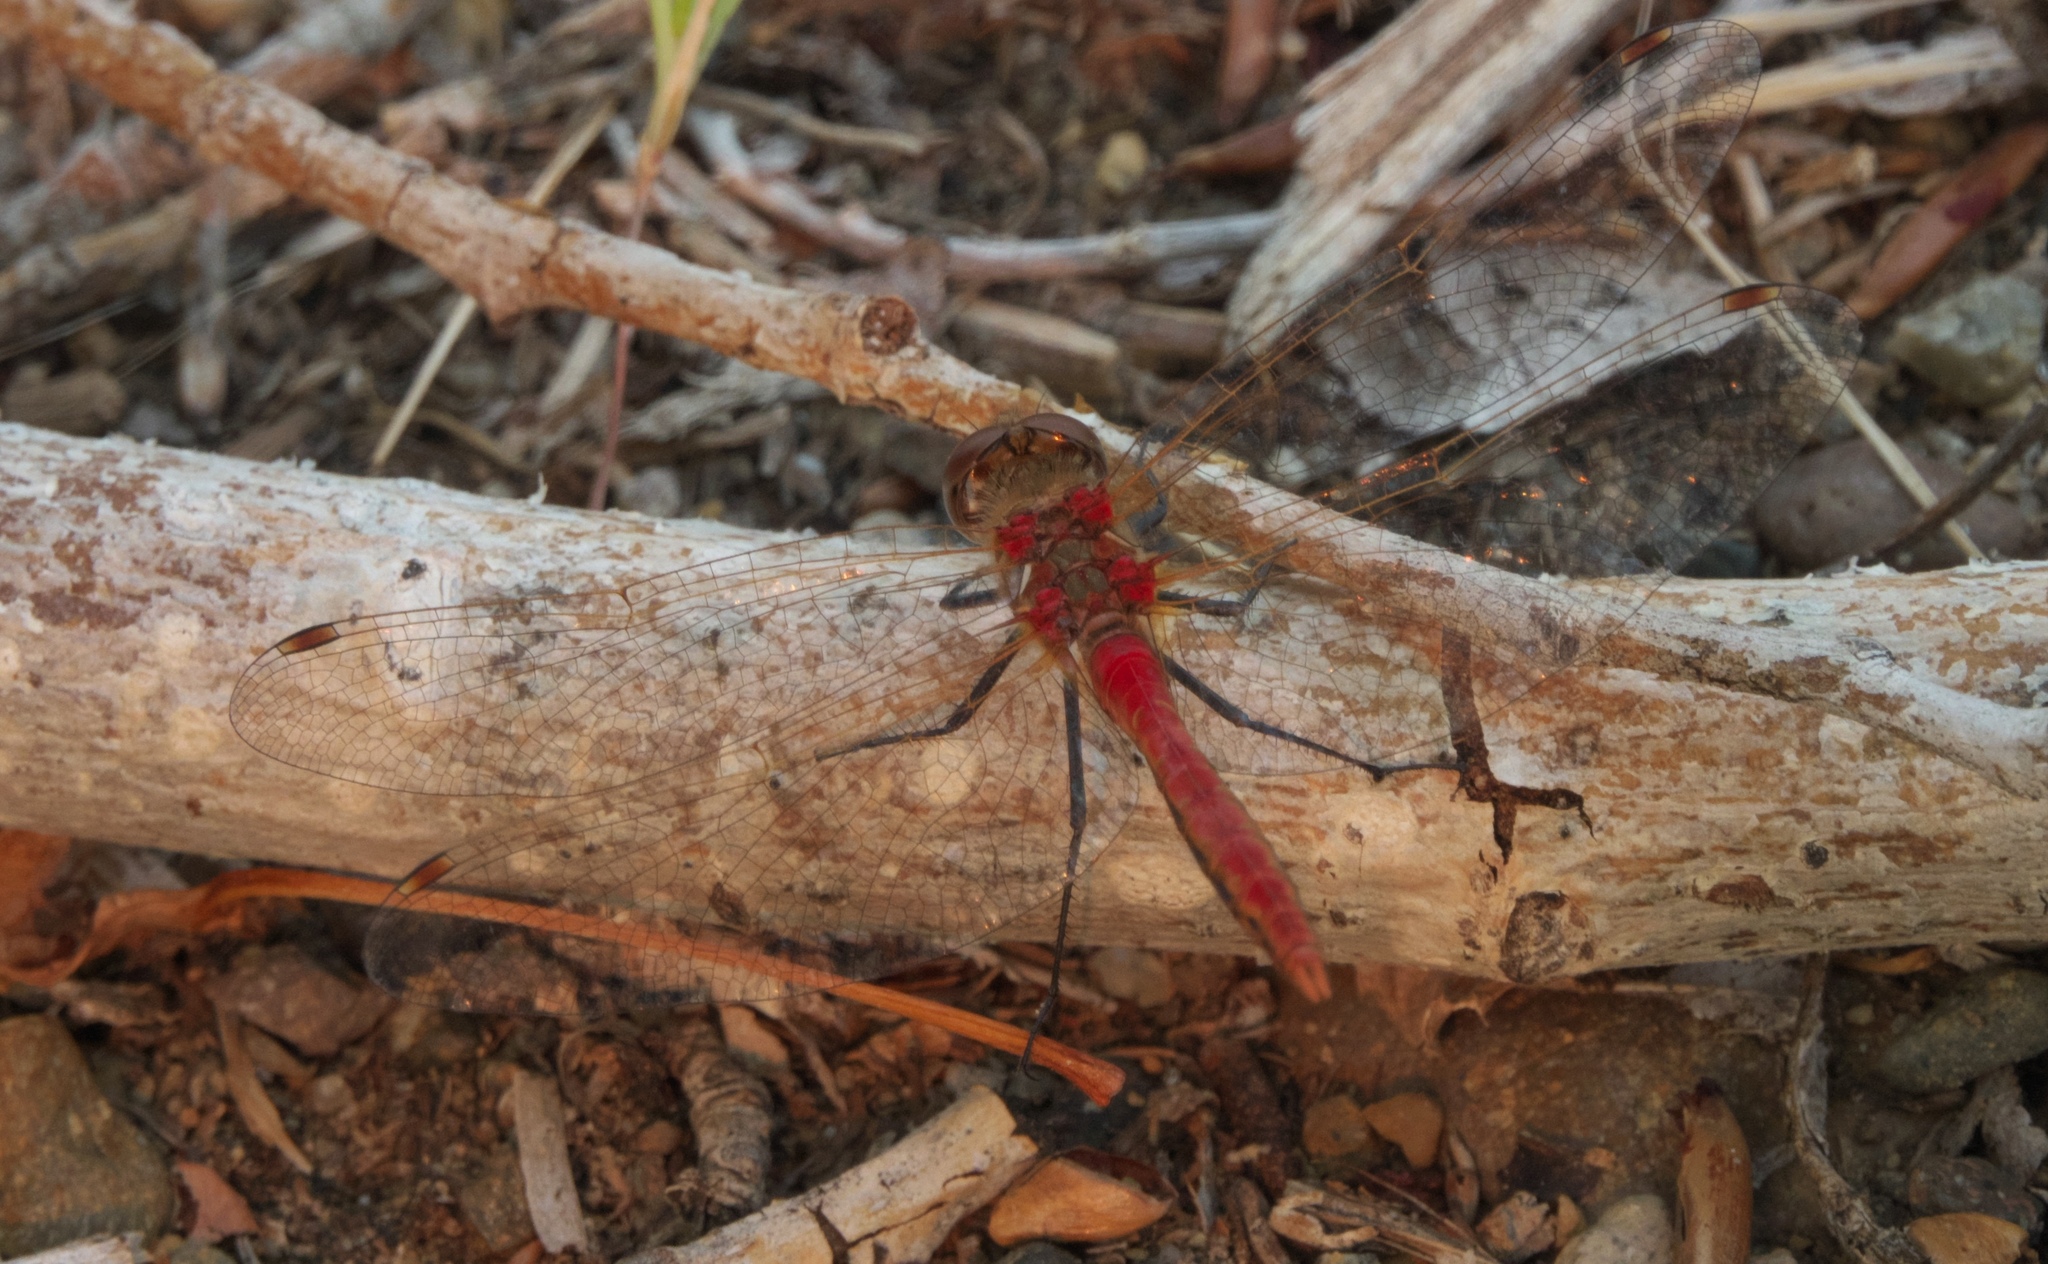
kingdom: Animalia
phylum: Arthropoda
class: Insecta
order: Odonata
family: Libellulidae
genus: Sympetrum
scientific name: Sympetrum pallipes
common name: Striped meadowhawk
